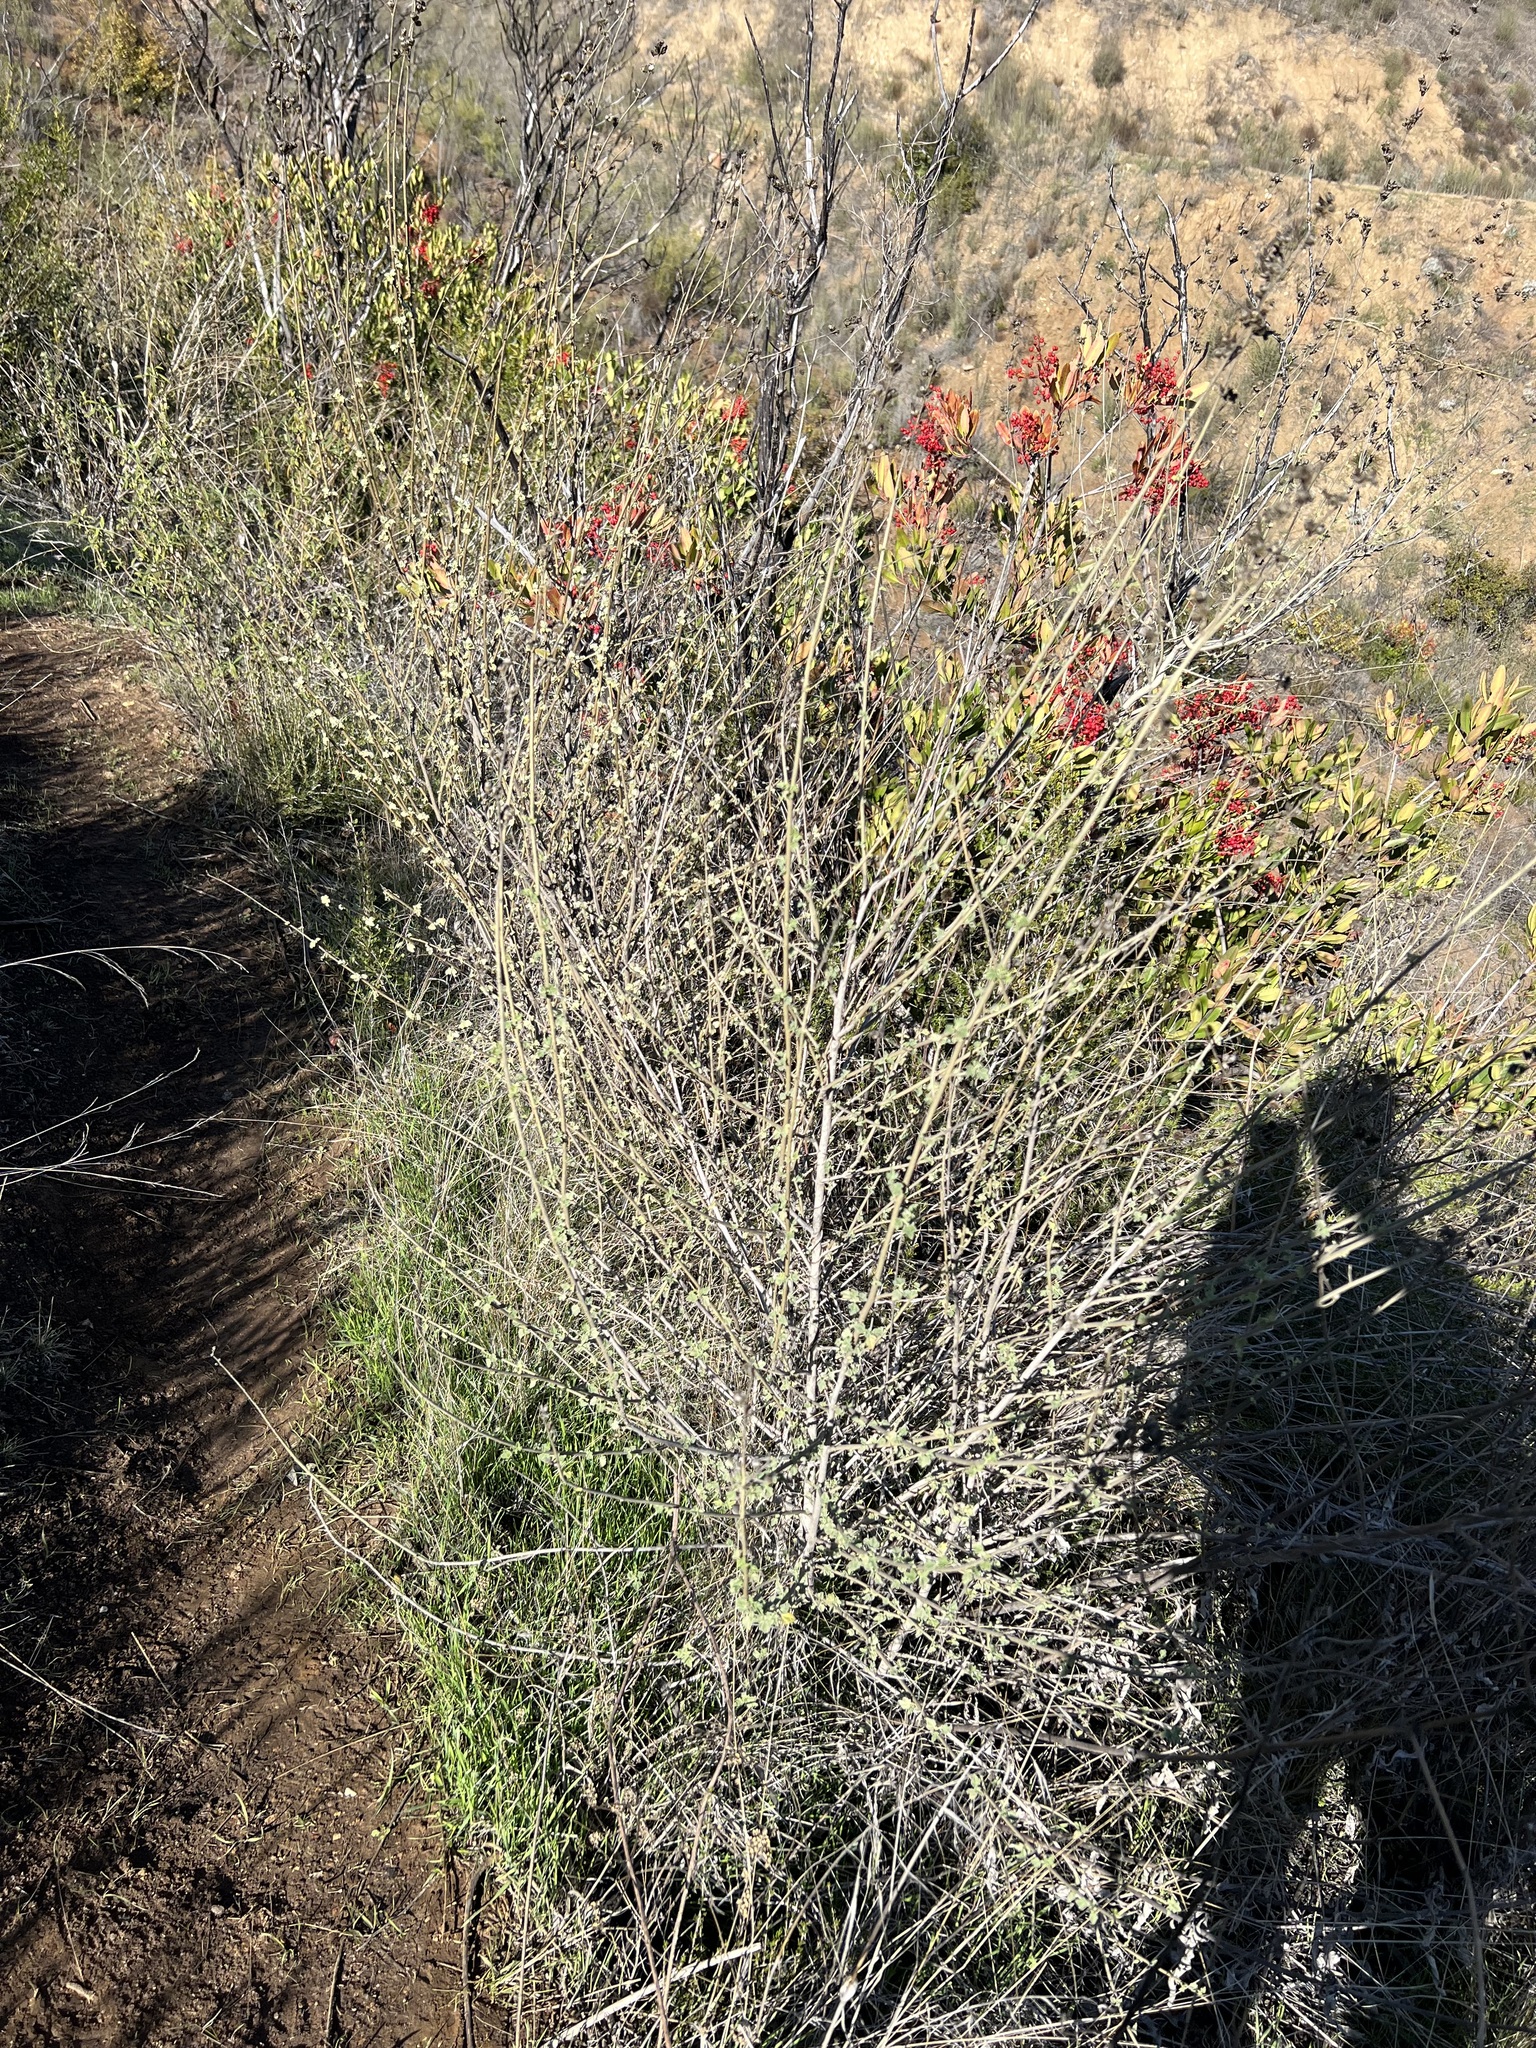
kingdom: Plantae
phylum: Tracheophyta
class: Magnoliopsida
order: Malvales
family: Malvaceae
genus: Malacothamnus
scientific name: Malacothamnus fasciculatus
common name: Sant cruz island bush-mallow
